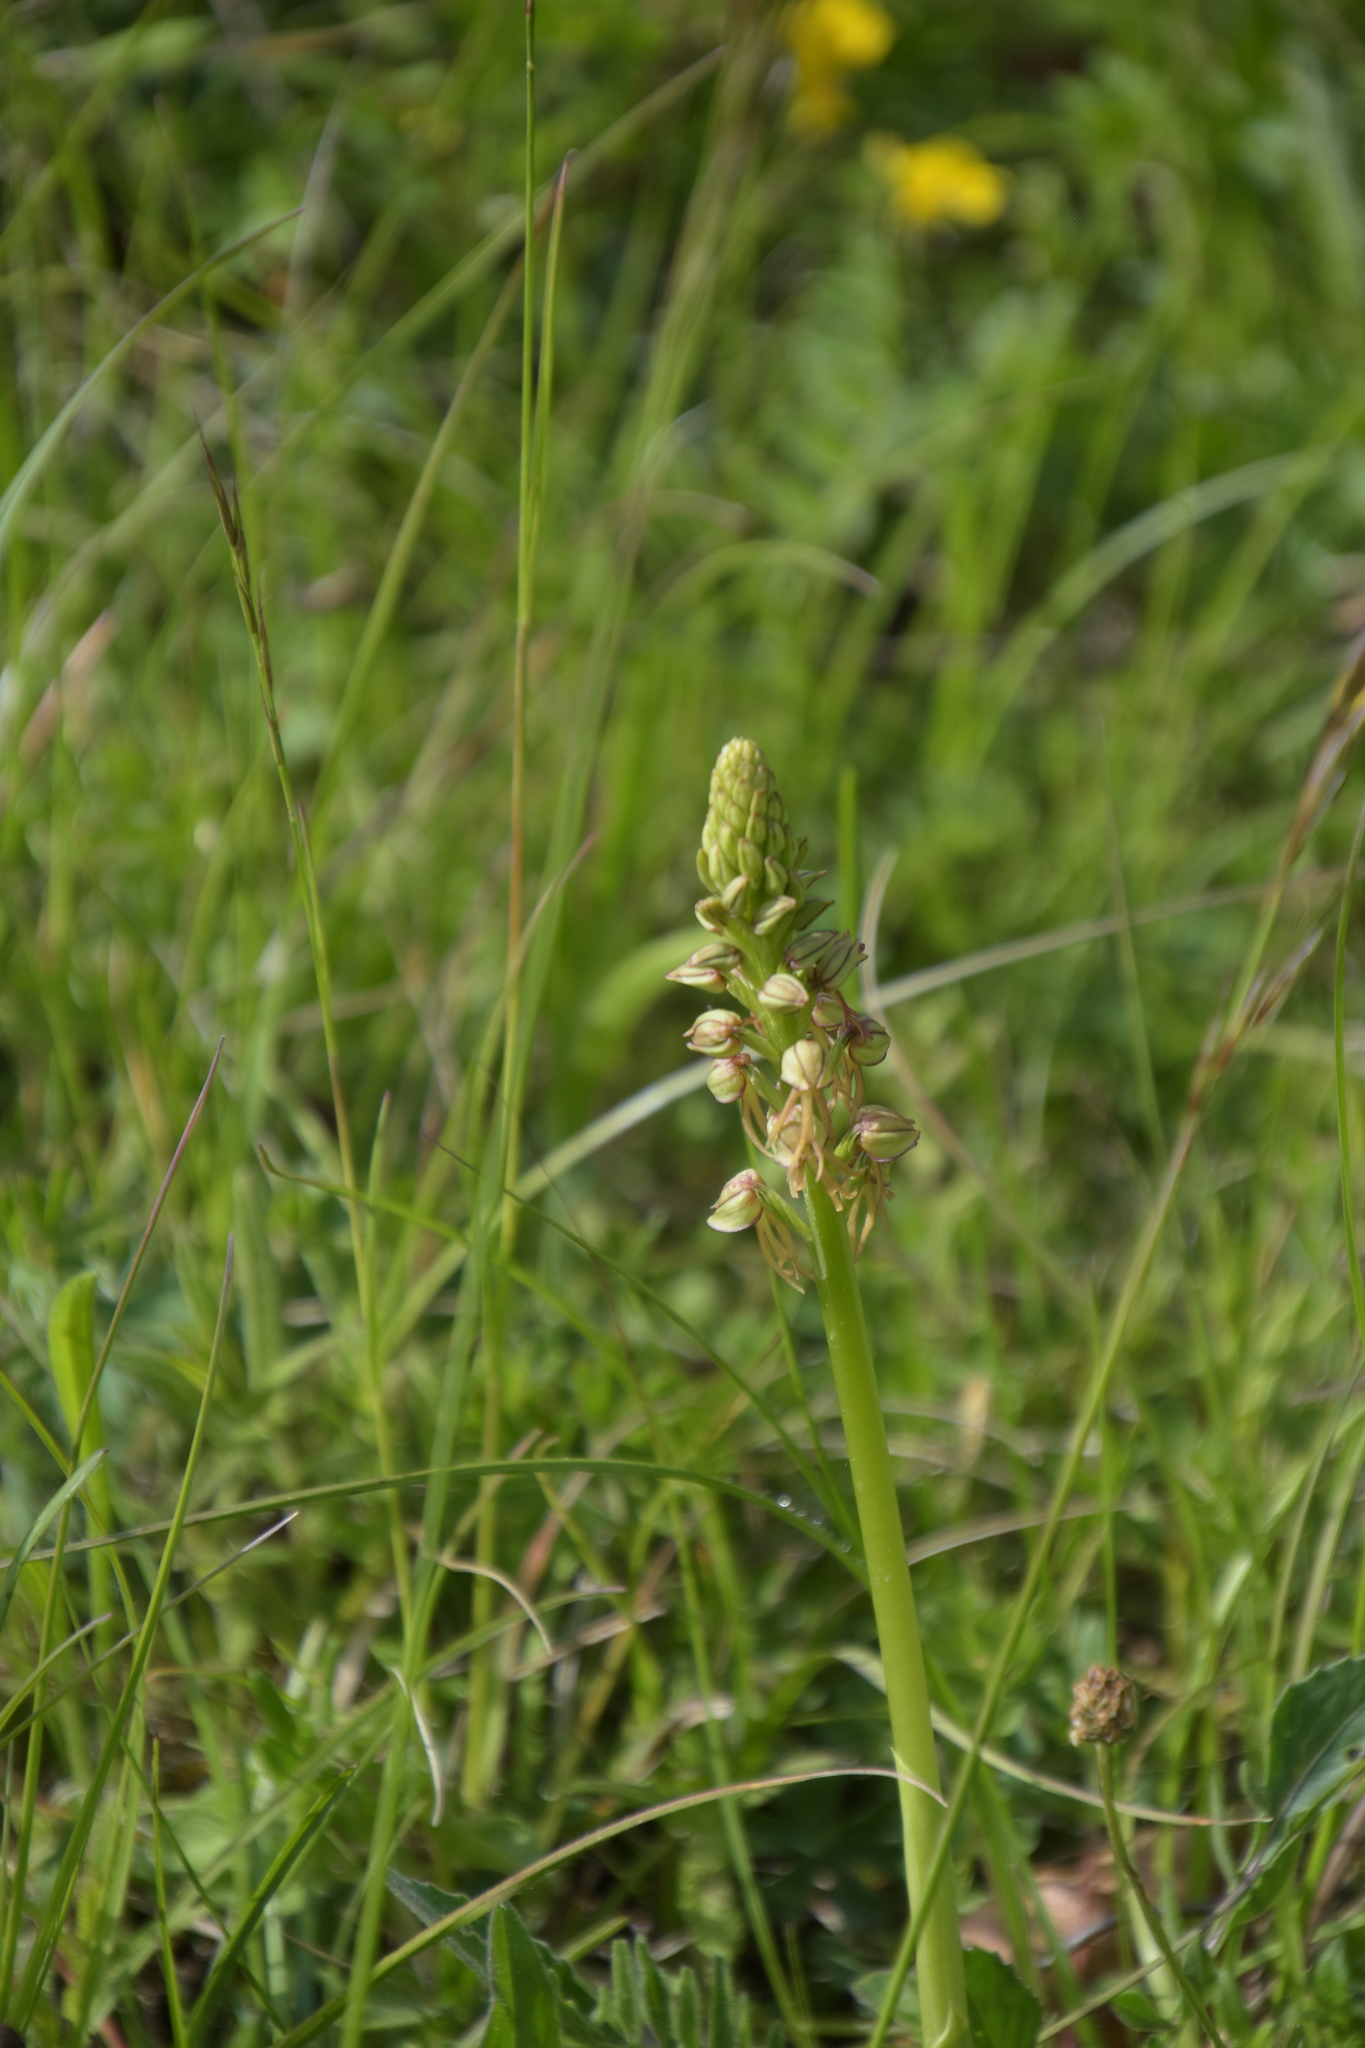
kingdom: Plantae
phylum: Tracheophyta
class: Liliopsida
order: Asparagales
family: Orchidaceae
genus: Orchis
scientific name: Orchis anthropophora
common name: Man orchid
